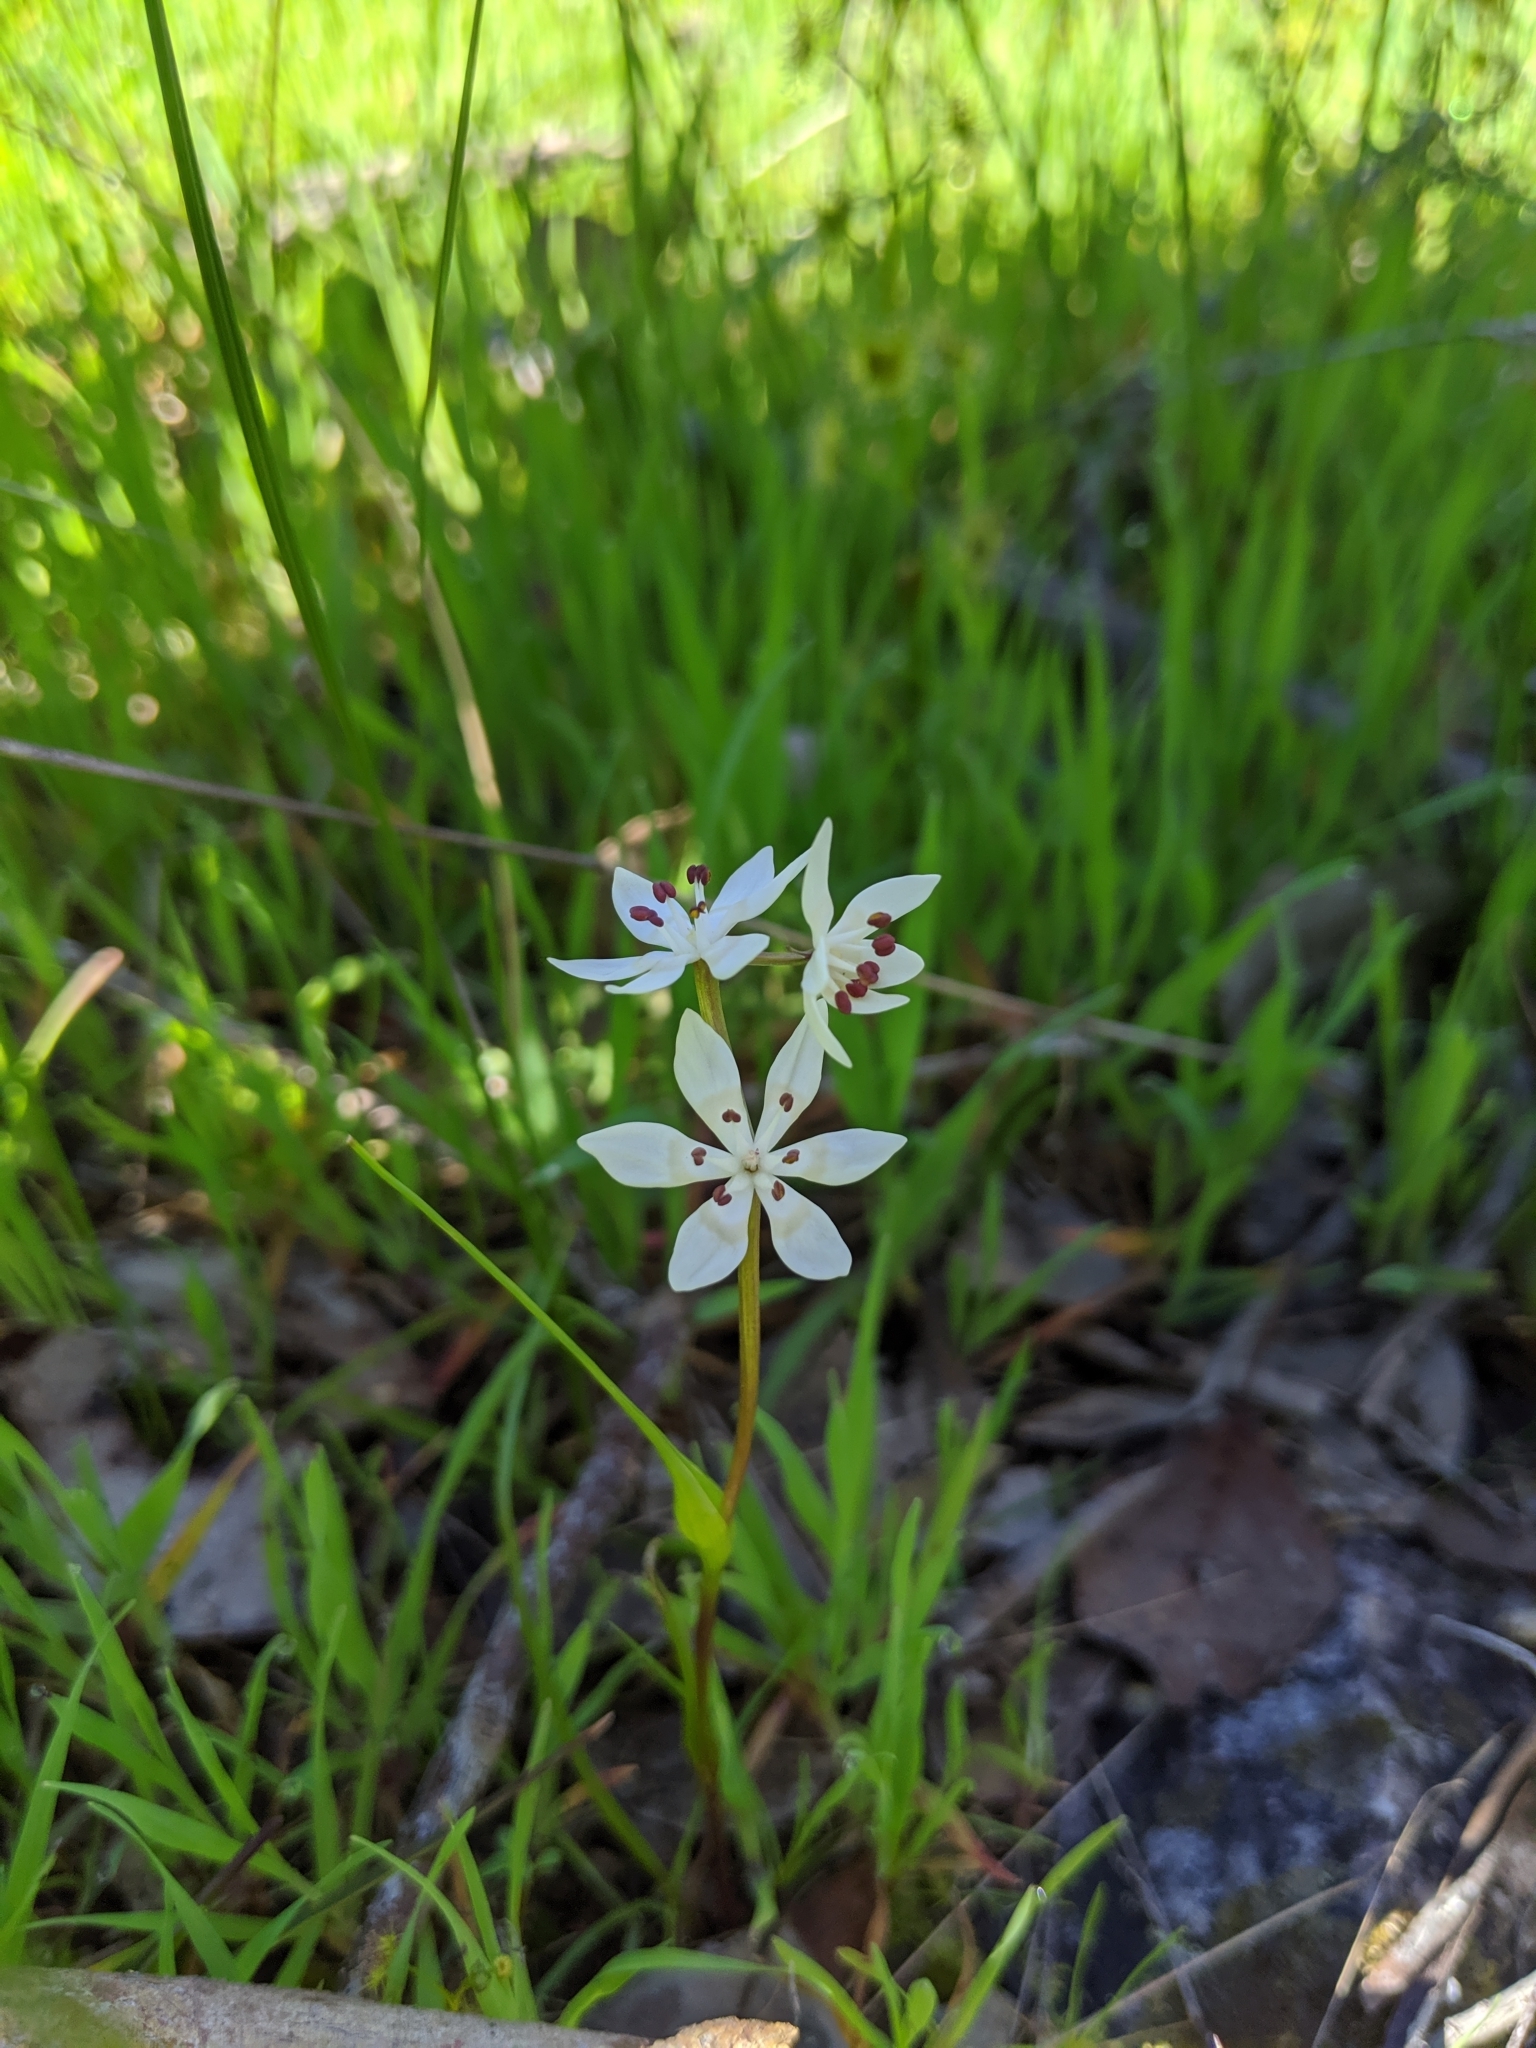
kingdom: Plantae
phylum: Tracheophyta
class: Liliopsida
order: Liliales
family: Colchicaceae
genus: Wurmbea
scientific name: Wurmbea dioica
